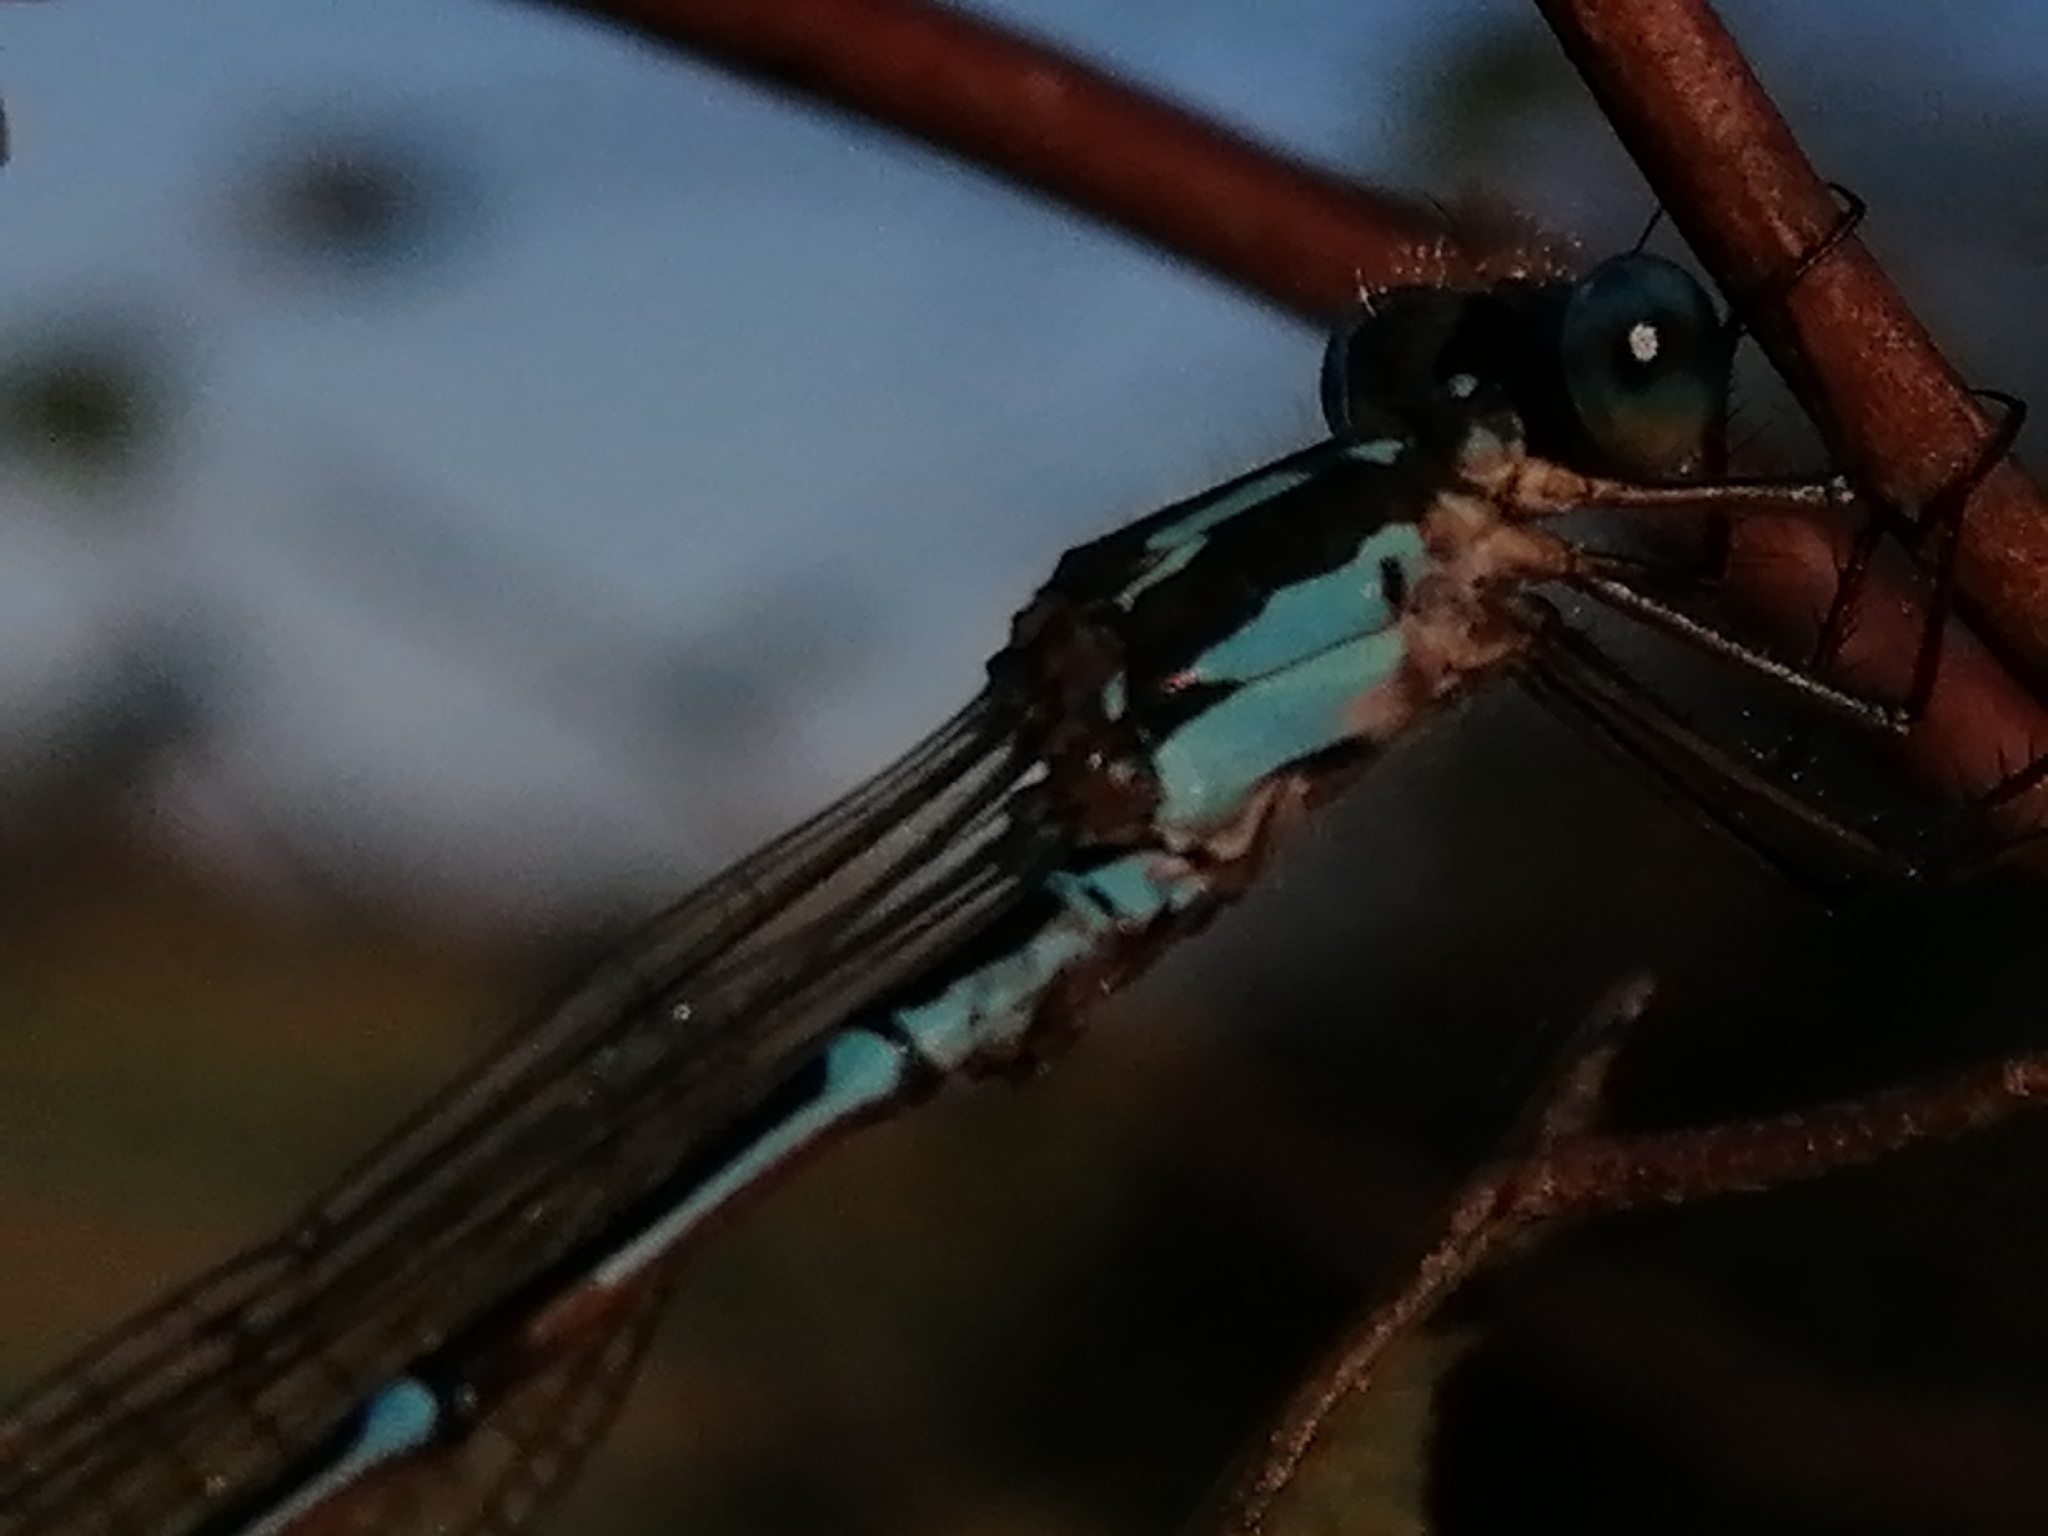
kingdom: Animalia
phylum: Arthropoda
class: Insecta
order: Odonata
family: Lestidae
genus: Austrolestes
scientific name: Austrolestes colensonis
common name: Blue damselfly
